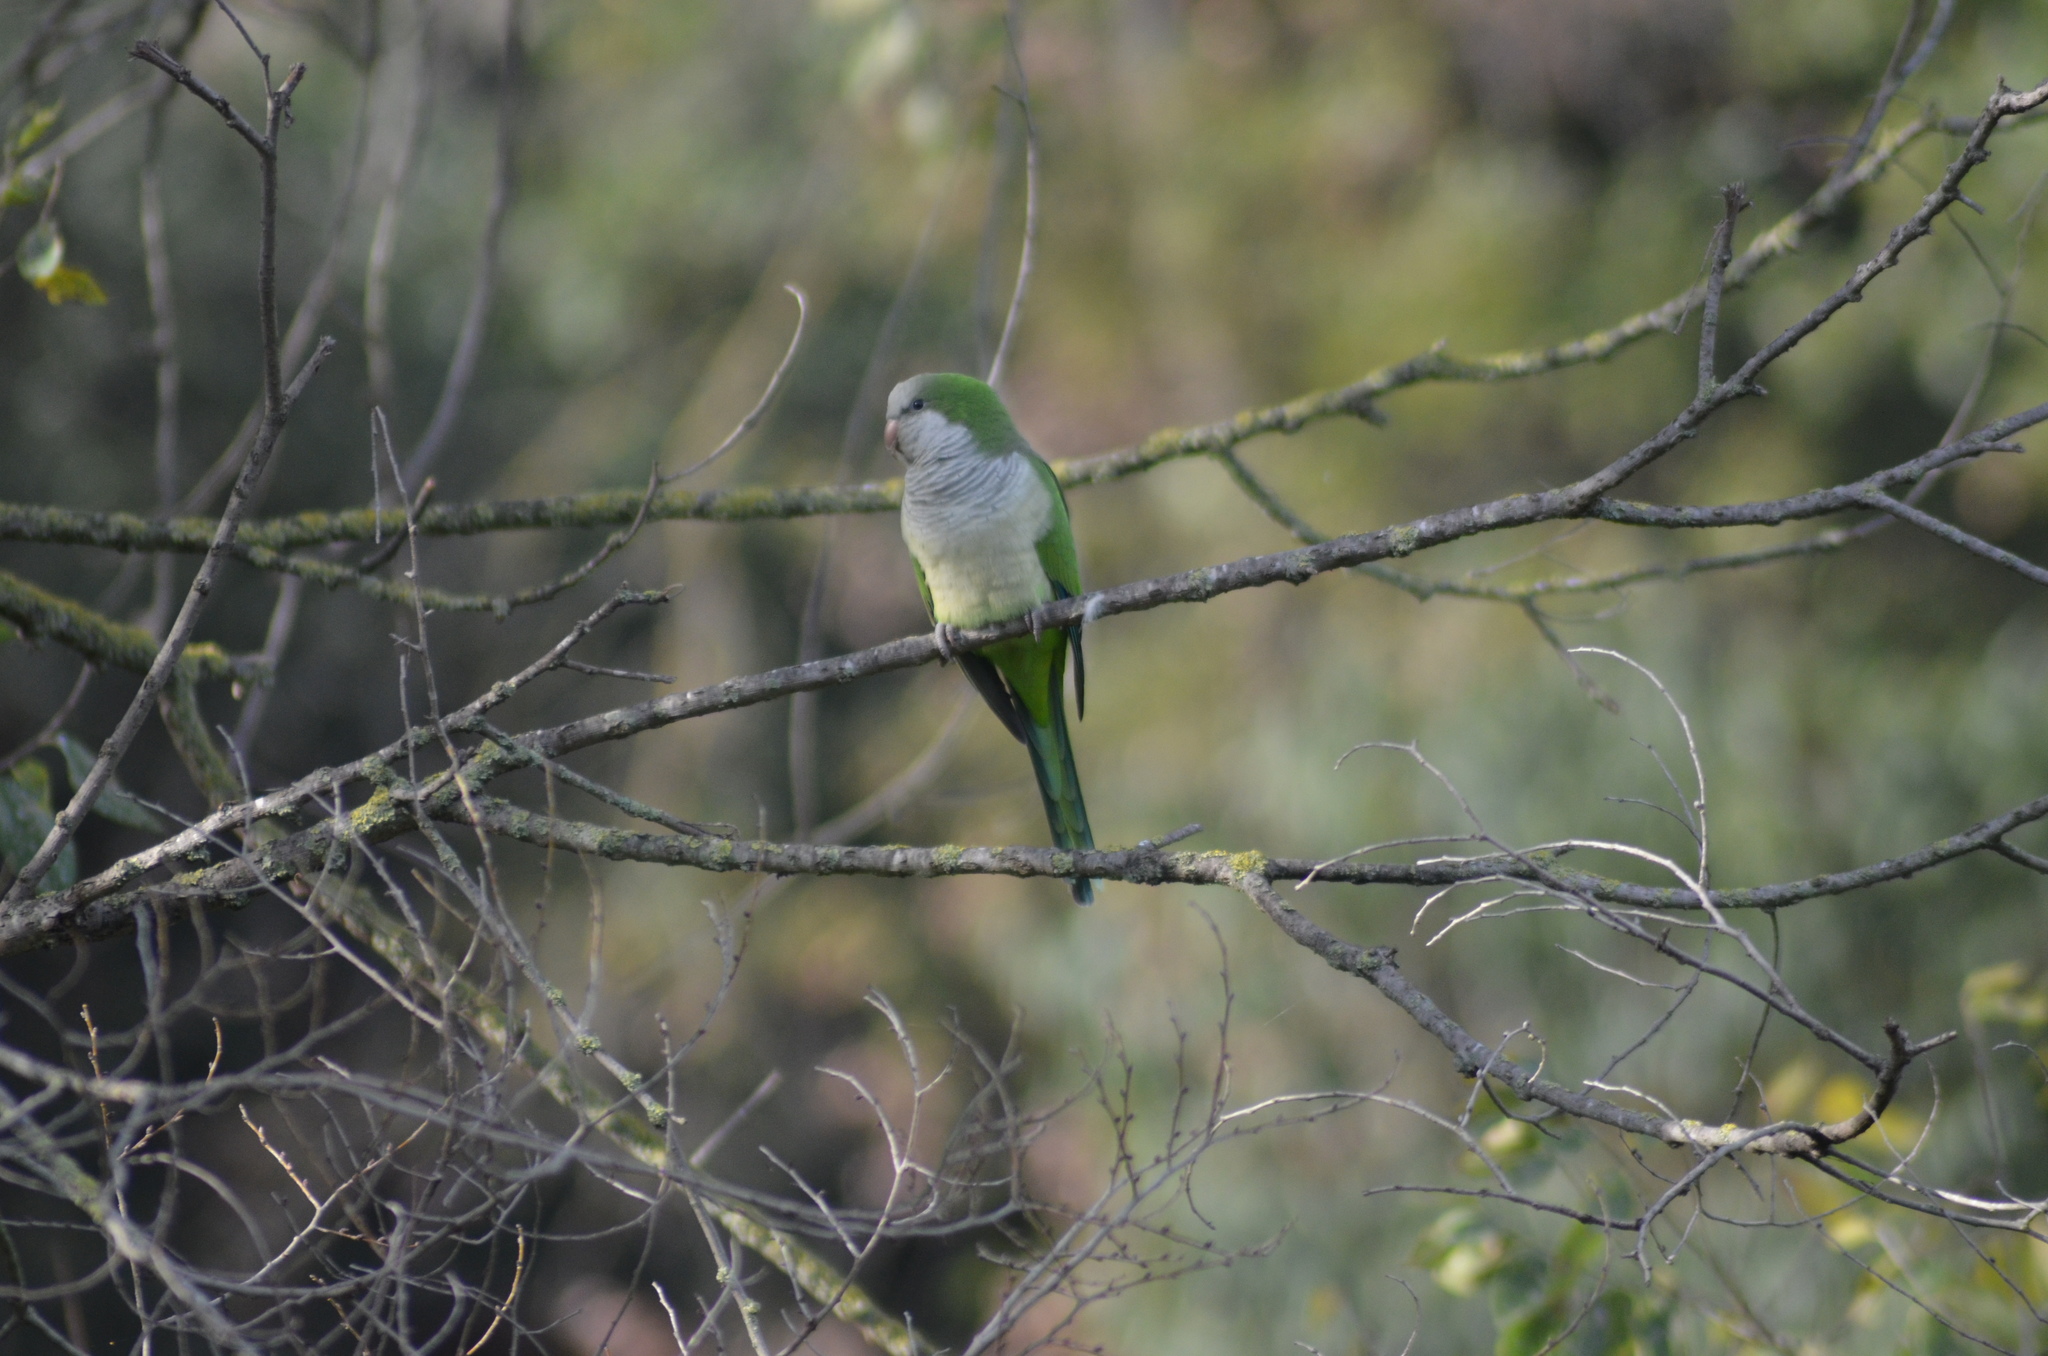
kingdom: Animalia
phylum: Chordata
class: Aves
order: Psittaciformes
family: Psittacidae
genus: Myiopsitta
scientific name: Myiopsitta monachus
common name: Monk parakeet
